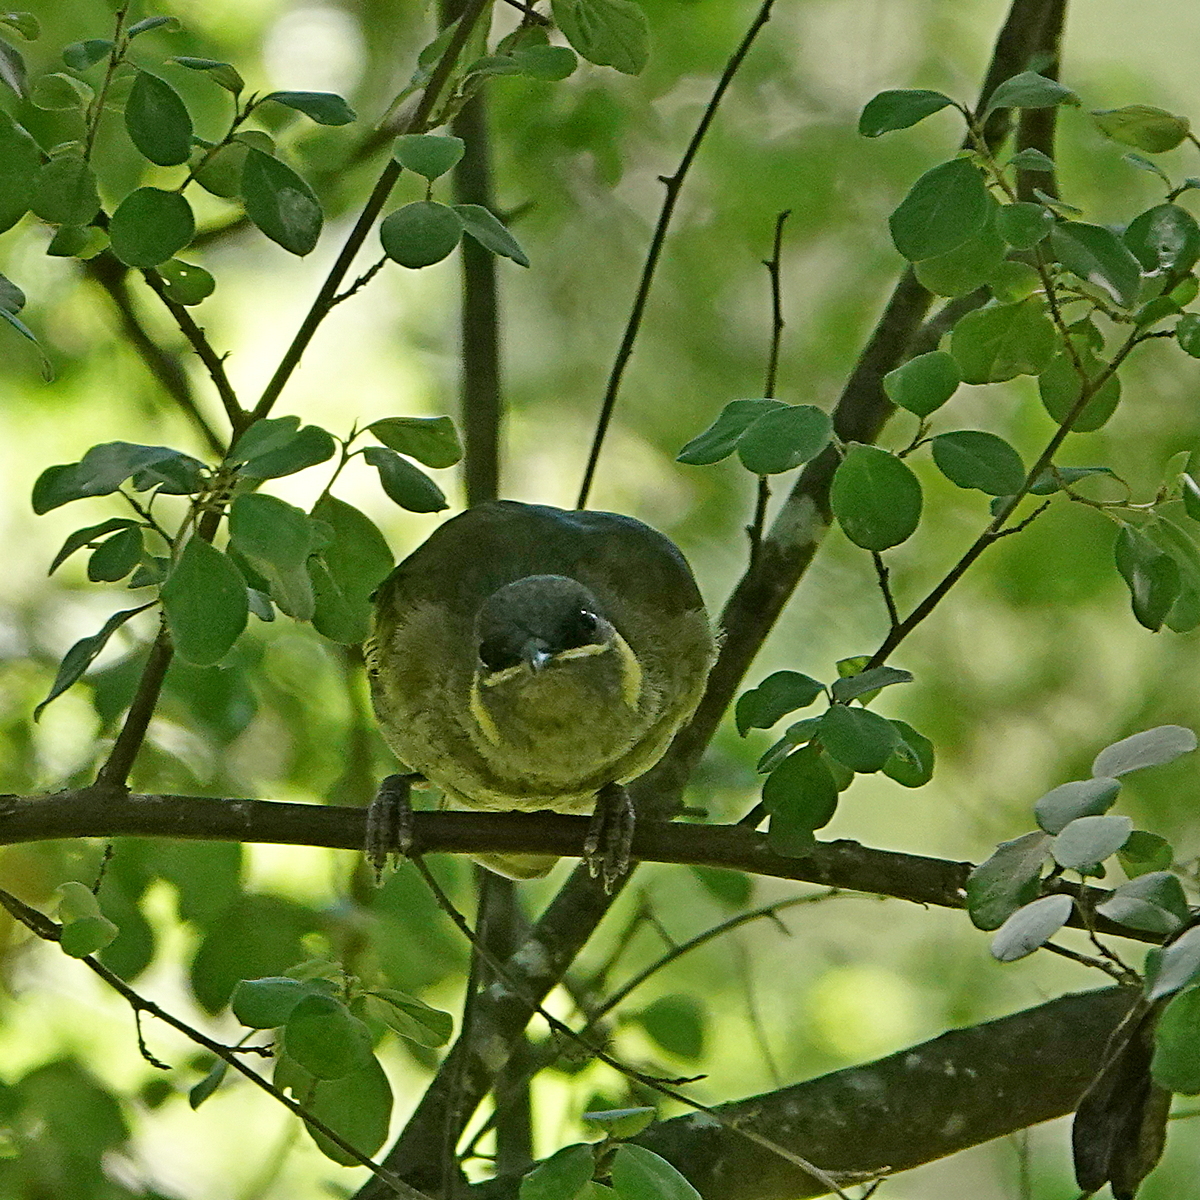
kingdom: Animalia
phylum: Chordata
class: Aves
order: Passeriformes
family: Meliphagidae
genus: Meliphaga
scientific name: Meliphaga lewinii
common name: Lewin's honeyeater
